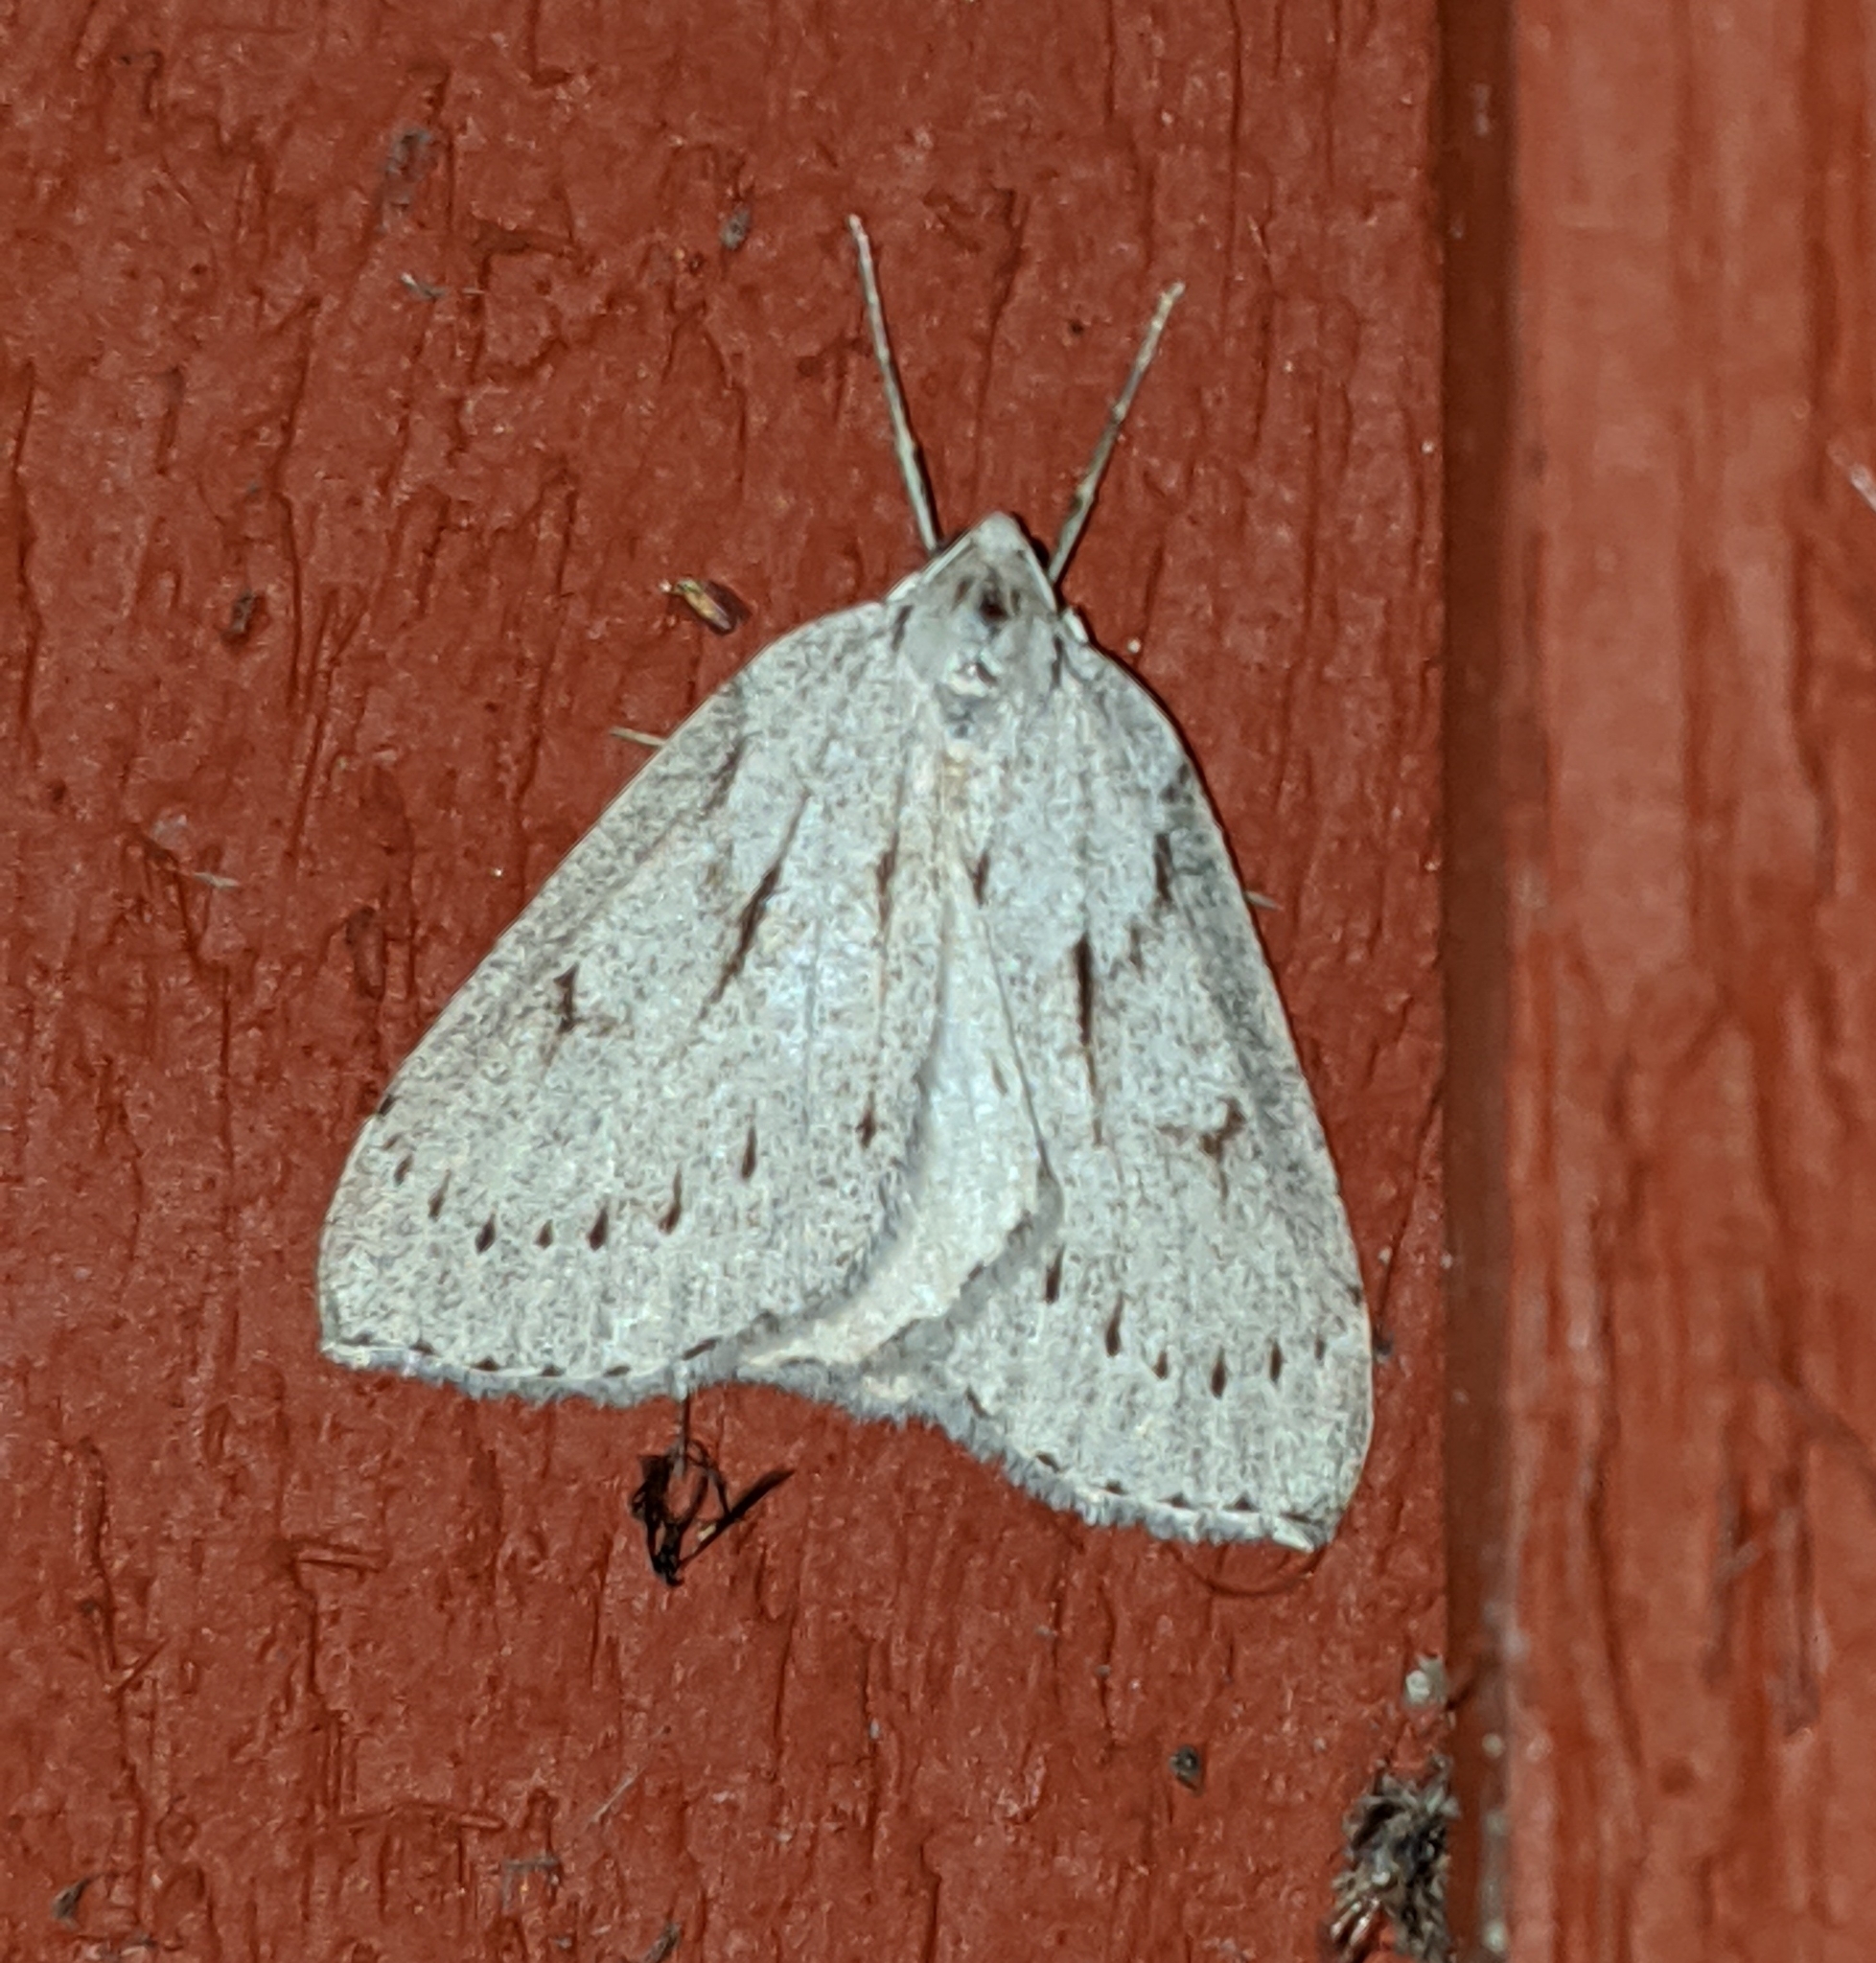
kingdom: Animalia
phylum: Arthropoda
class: Insecta
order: Lepidoptera
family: Geometridae
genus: Philedia
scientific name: Philedia punctomacularia
